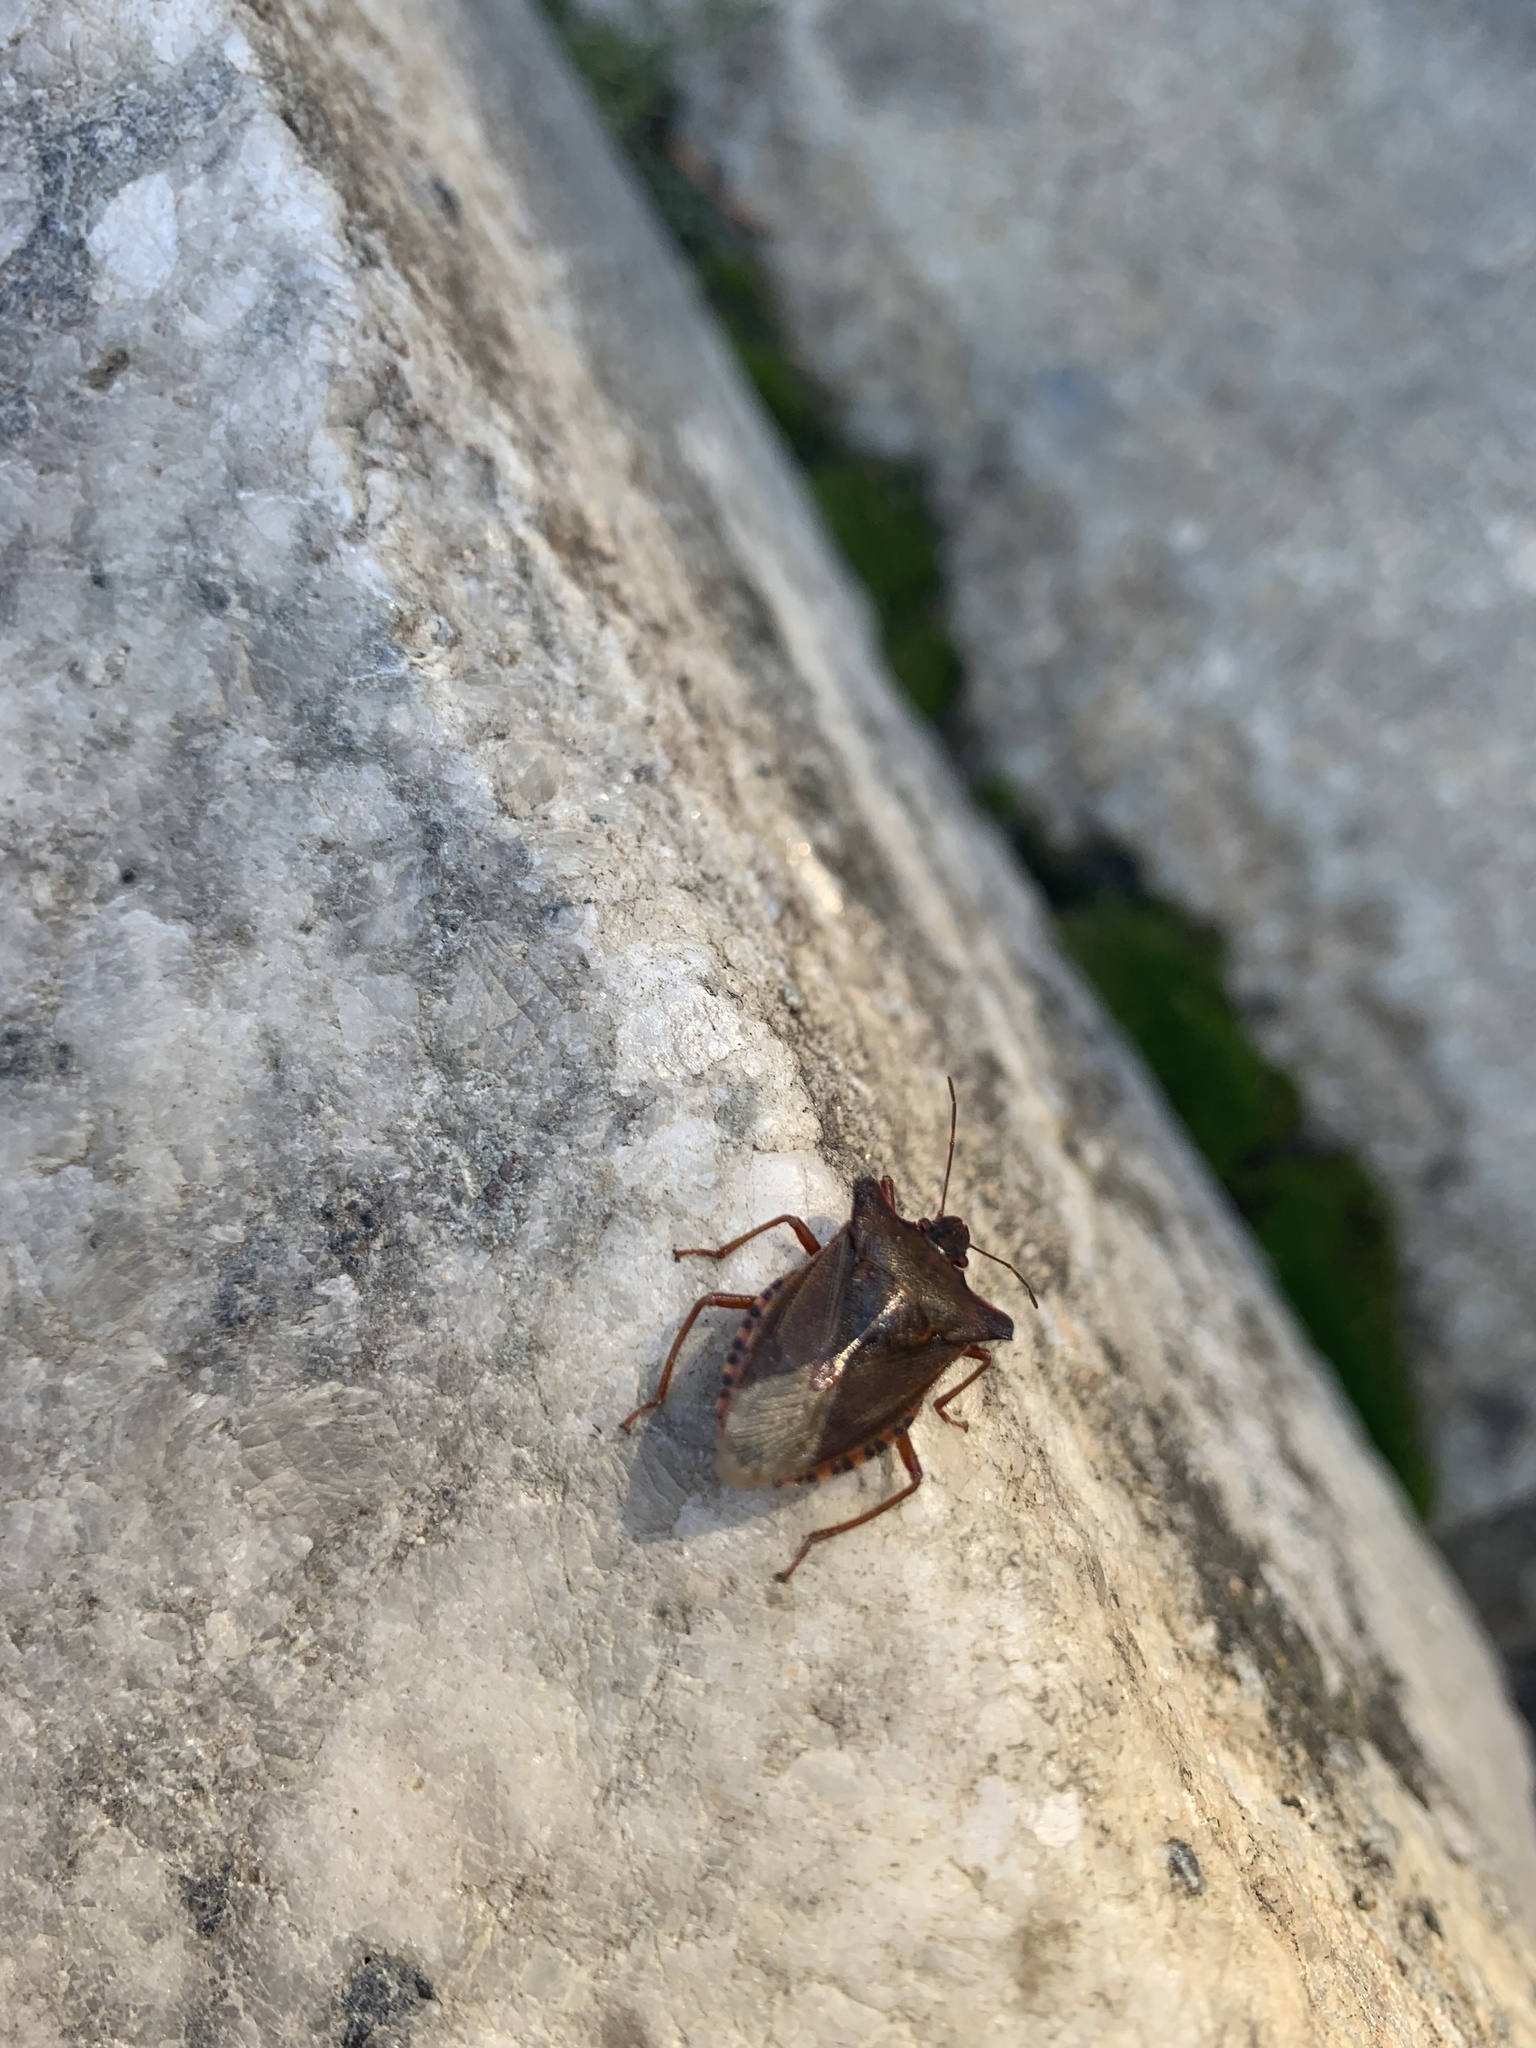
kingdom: Animalia
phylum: Arthropoda
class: Insecta
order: Hemiptera
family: Pentatomidae
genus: Pentatoma
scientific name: Pentatoma rufipes
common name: Forest bug
